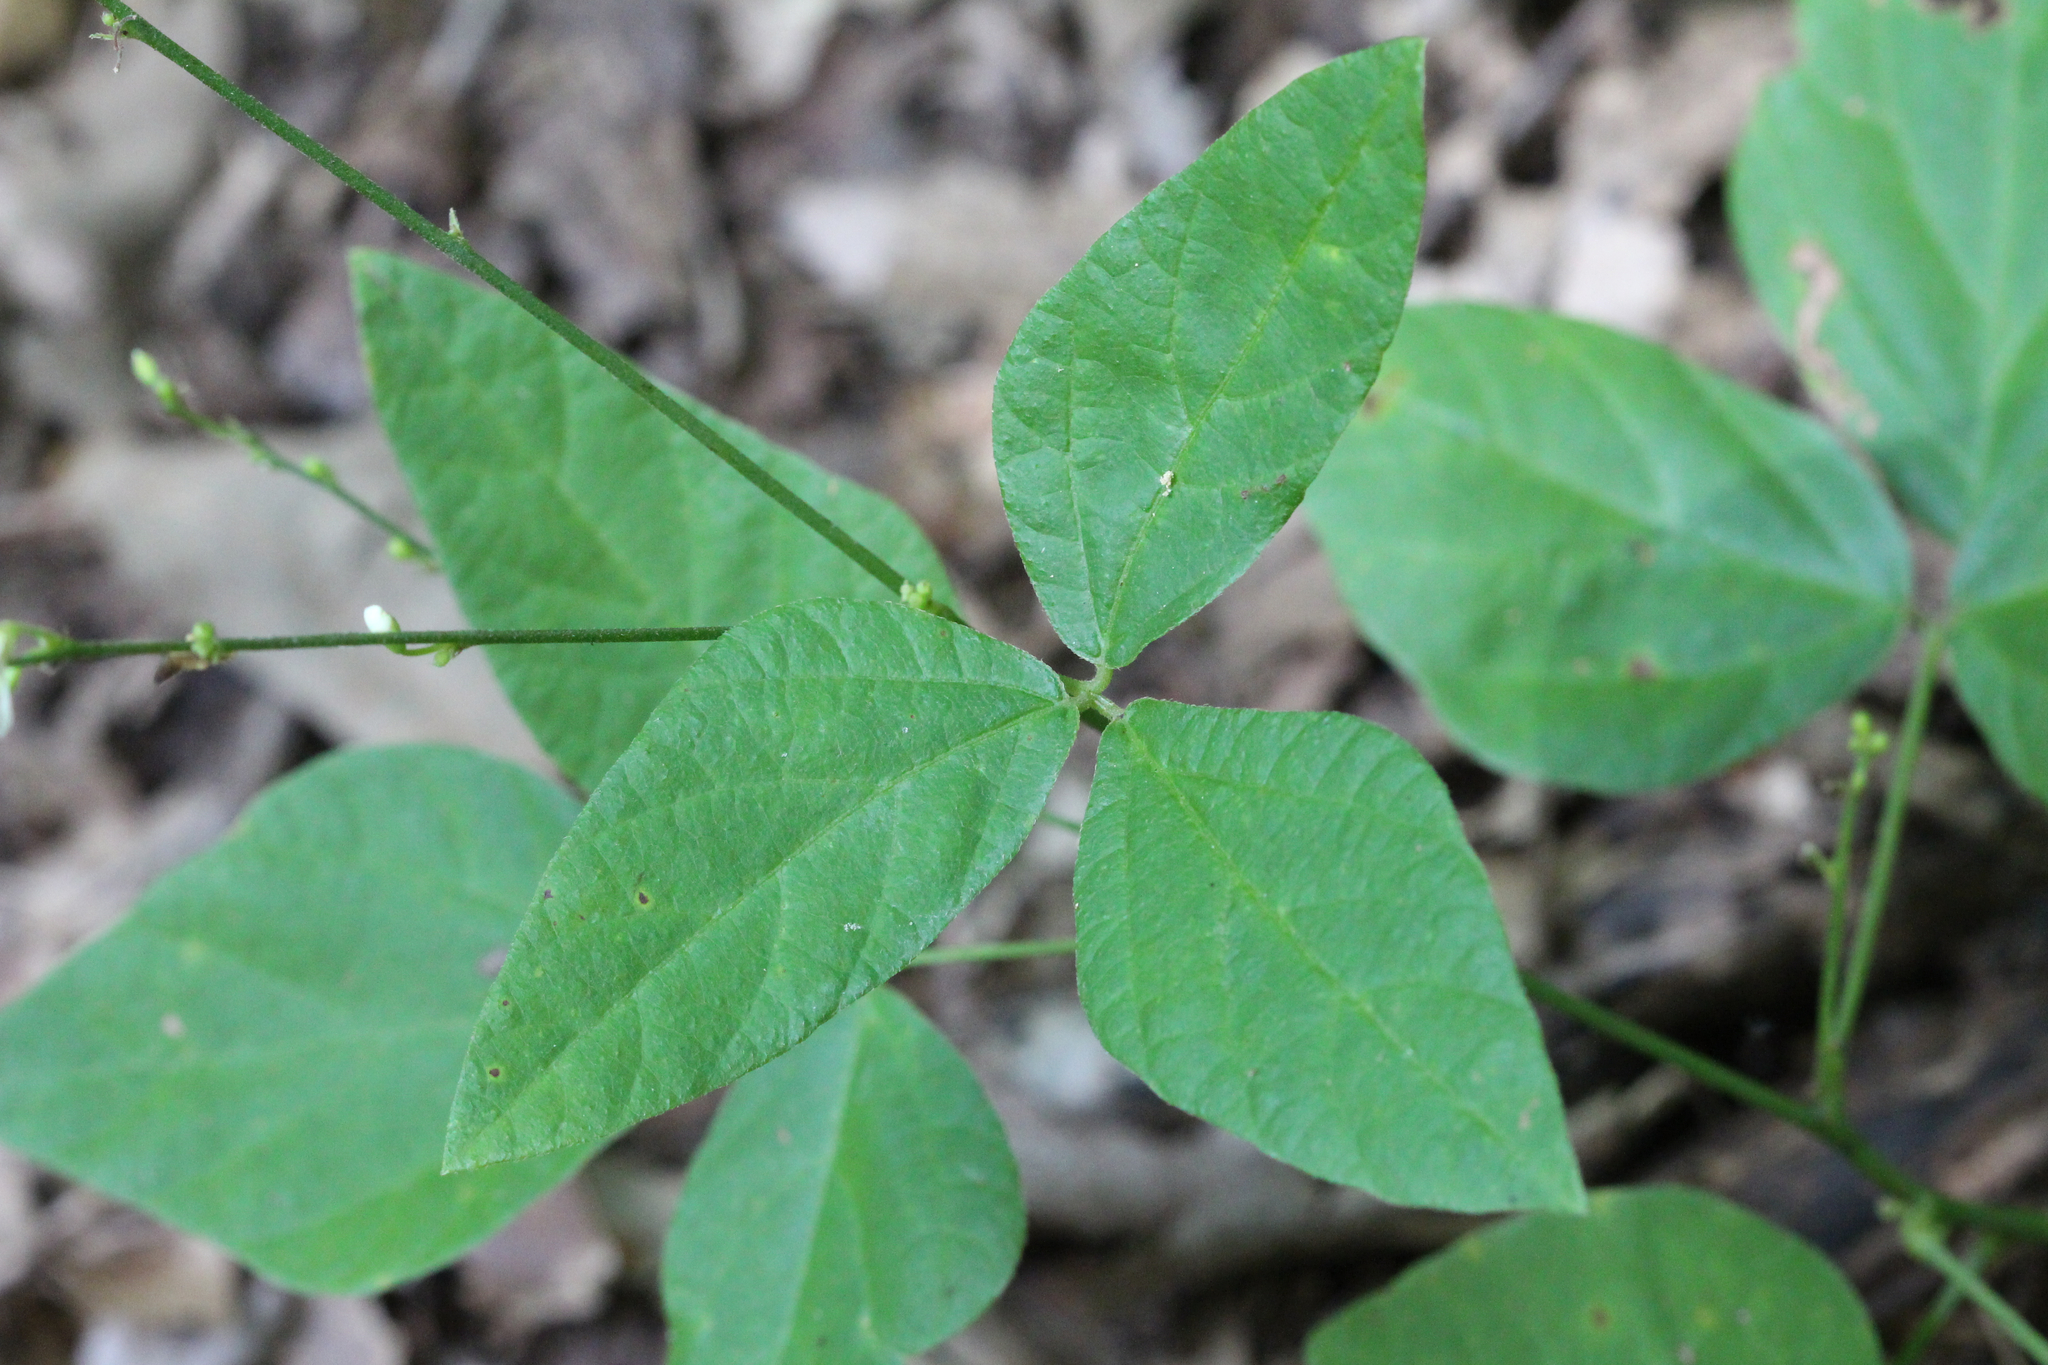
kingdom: Plantae
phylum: Tracheophyta
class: Magnoliopsida
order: Fabales
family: Fabaceae
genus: Hylodesmum
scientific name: Hylodesmum pauciflorum
